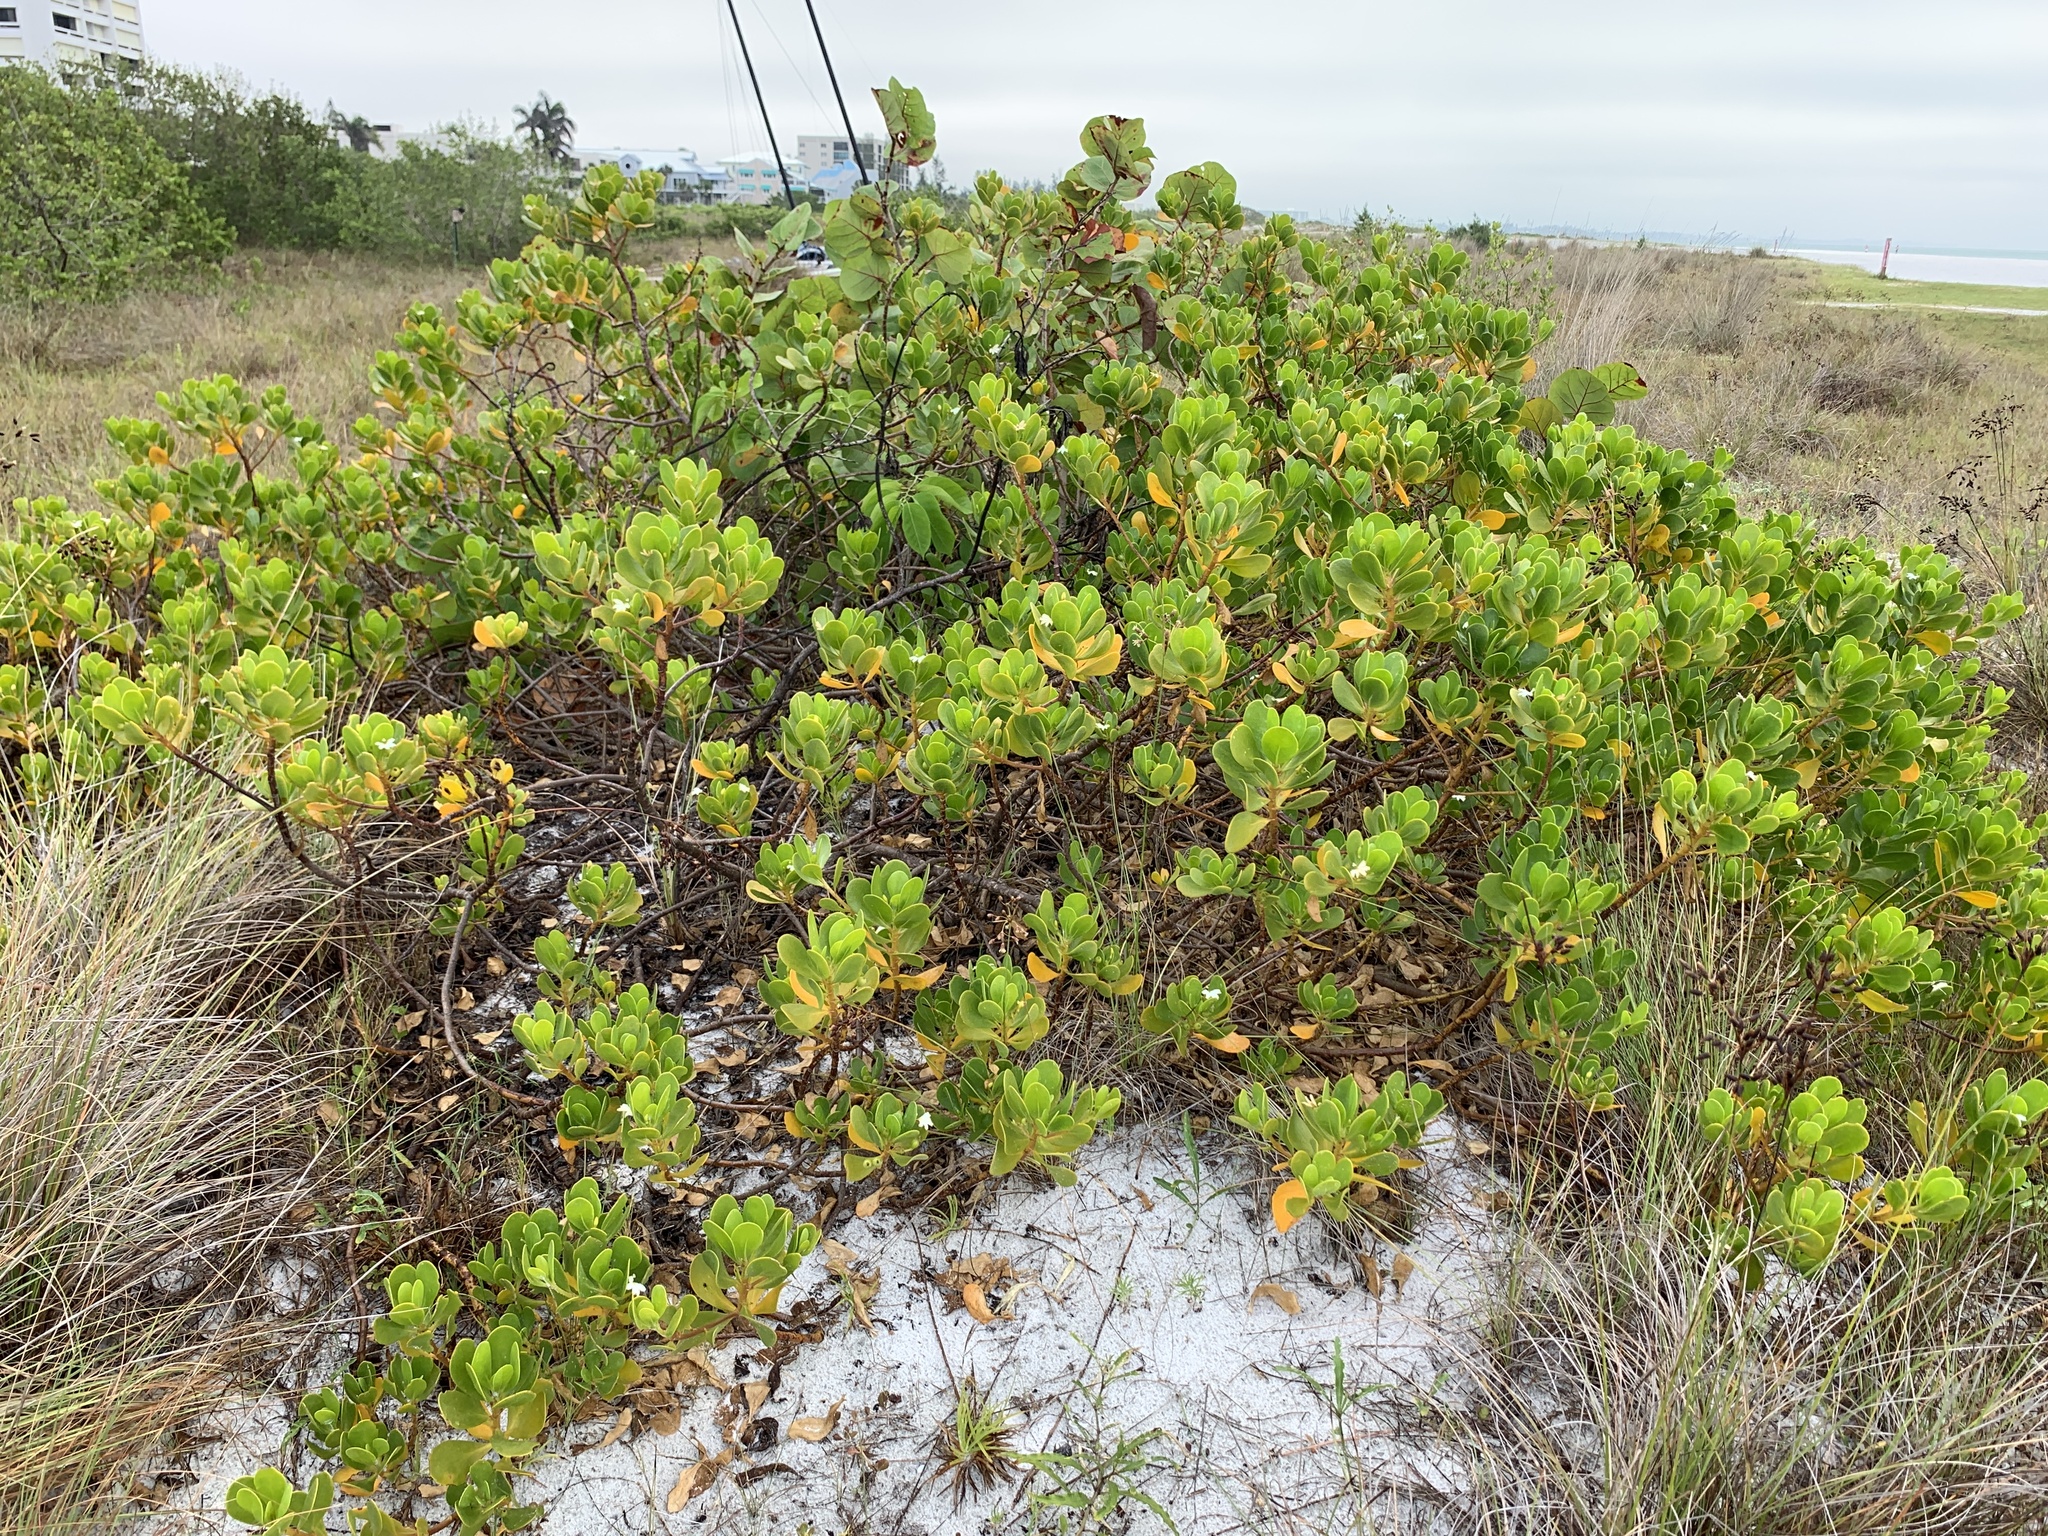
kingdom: Plantae
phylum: Tracheophyta
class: Magnoliopsida
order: Asterales
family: Goodeniaceae
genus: Scaevola
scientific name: Scaevola plumieri
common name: Gull feed
